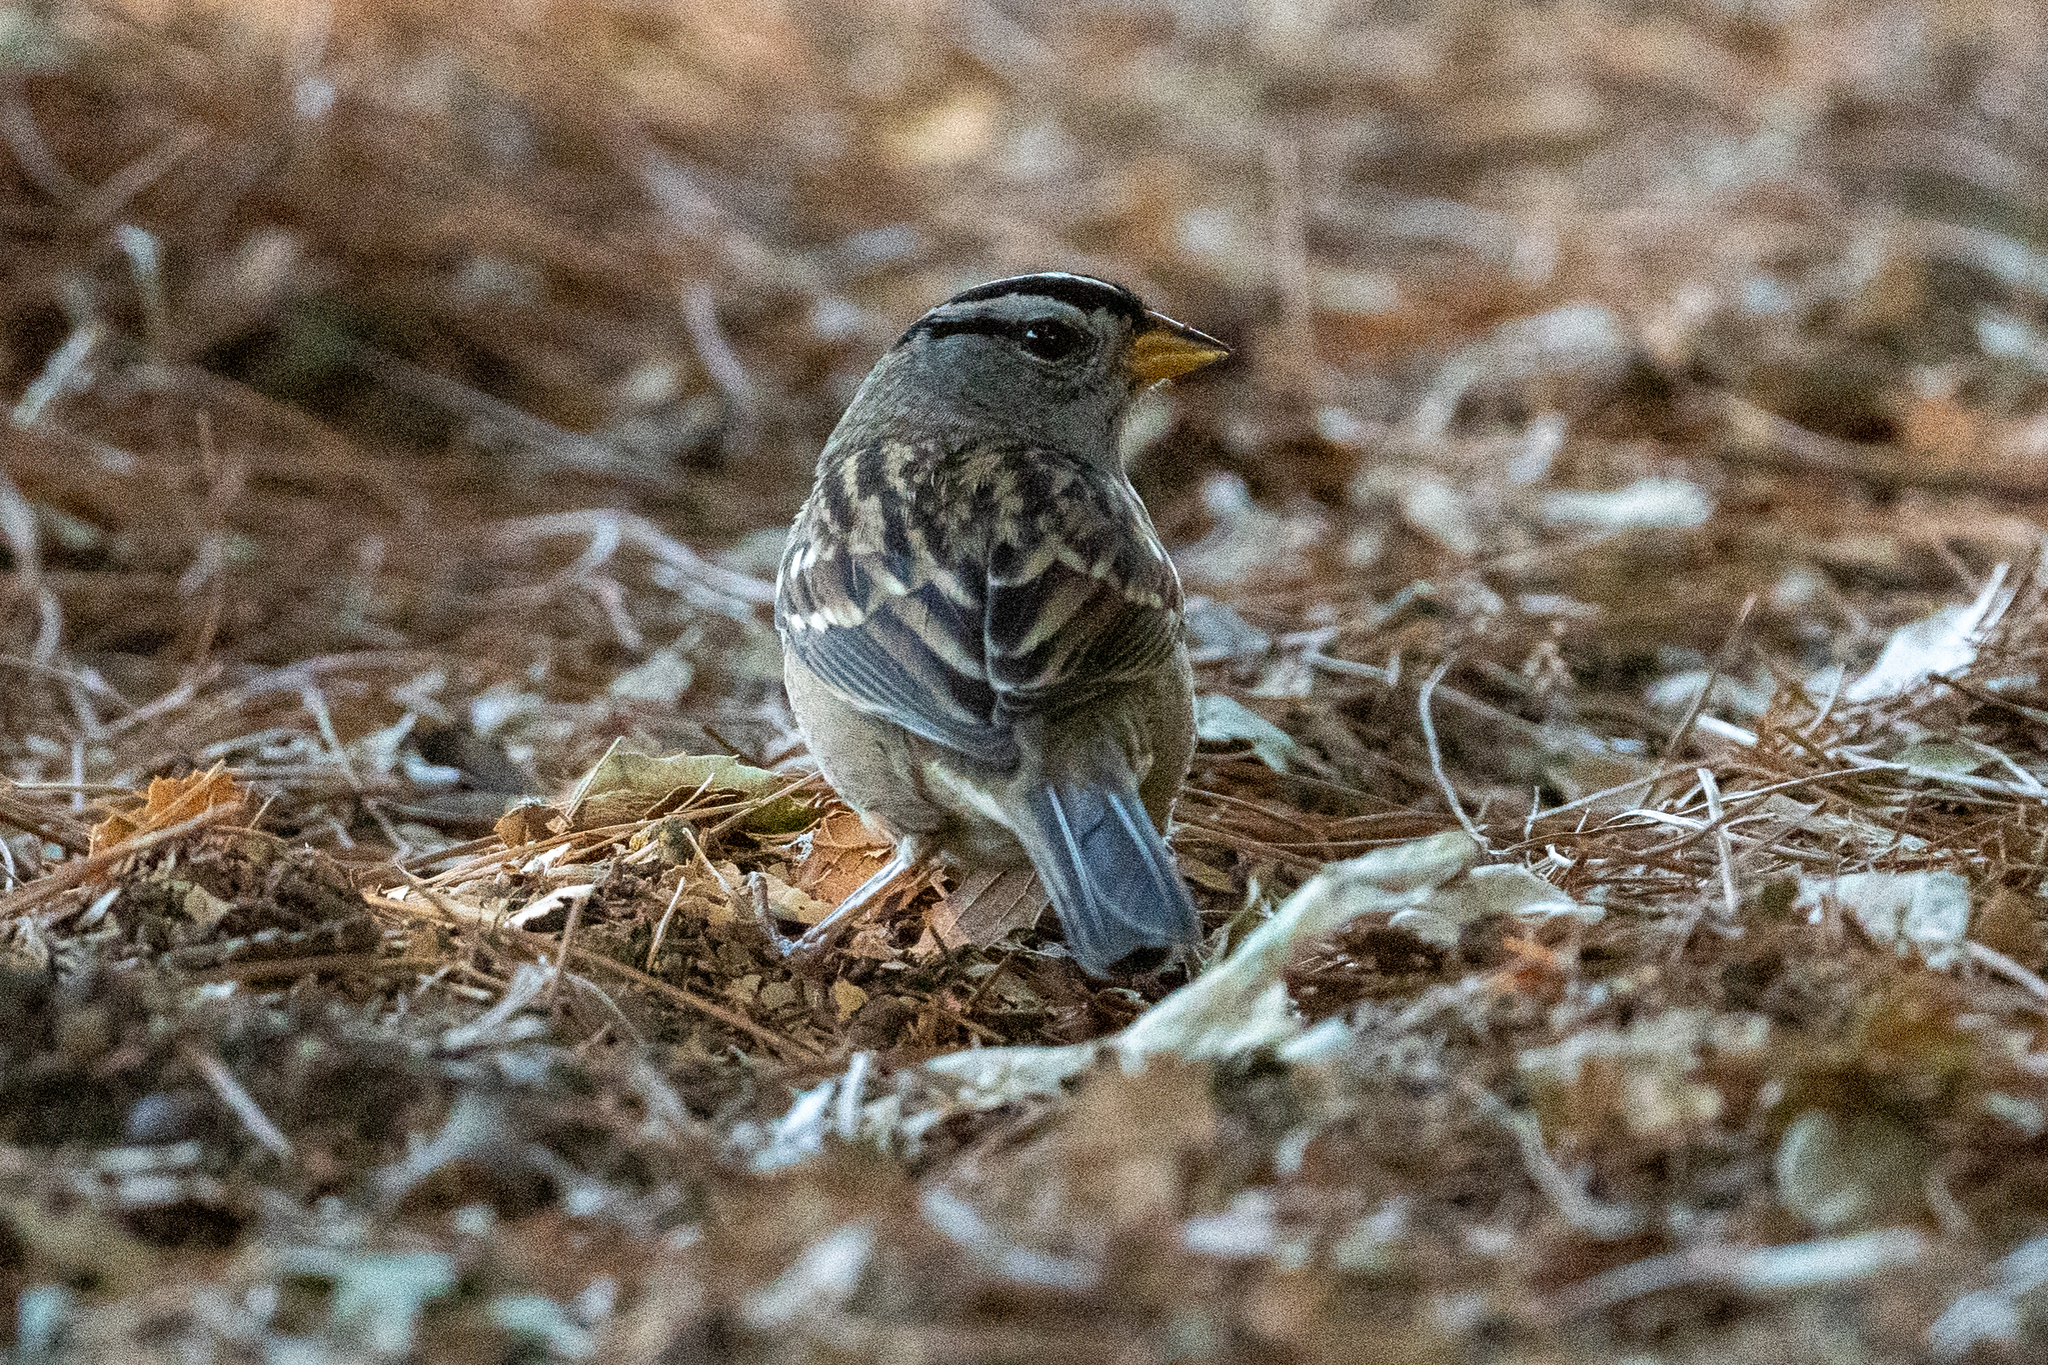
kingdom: Animalia
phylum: Chordata
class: Aves
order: Passeriformes
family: Passerellidae
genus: Zonotrichia
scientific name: Zonotrichia leucophrys
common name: White-crowned sparrow
